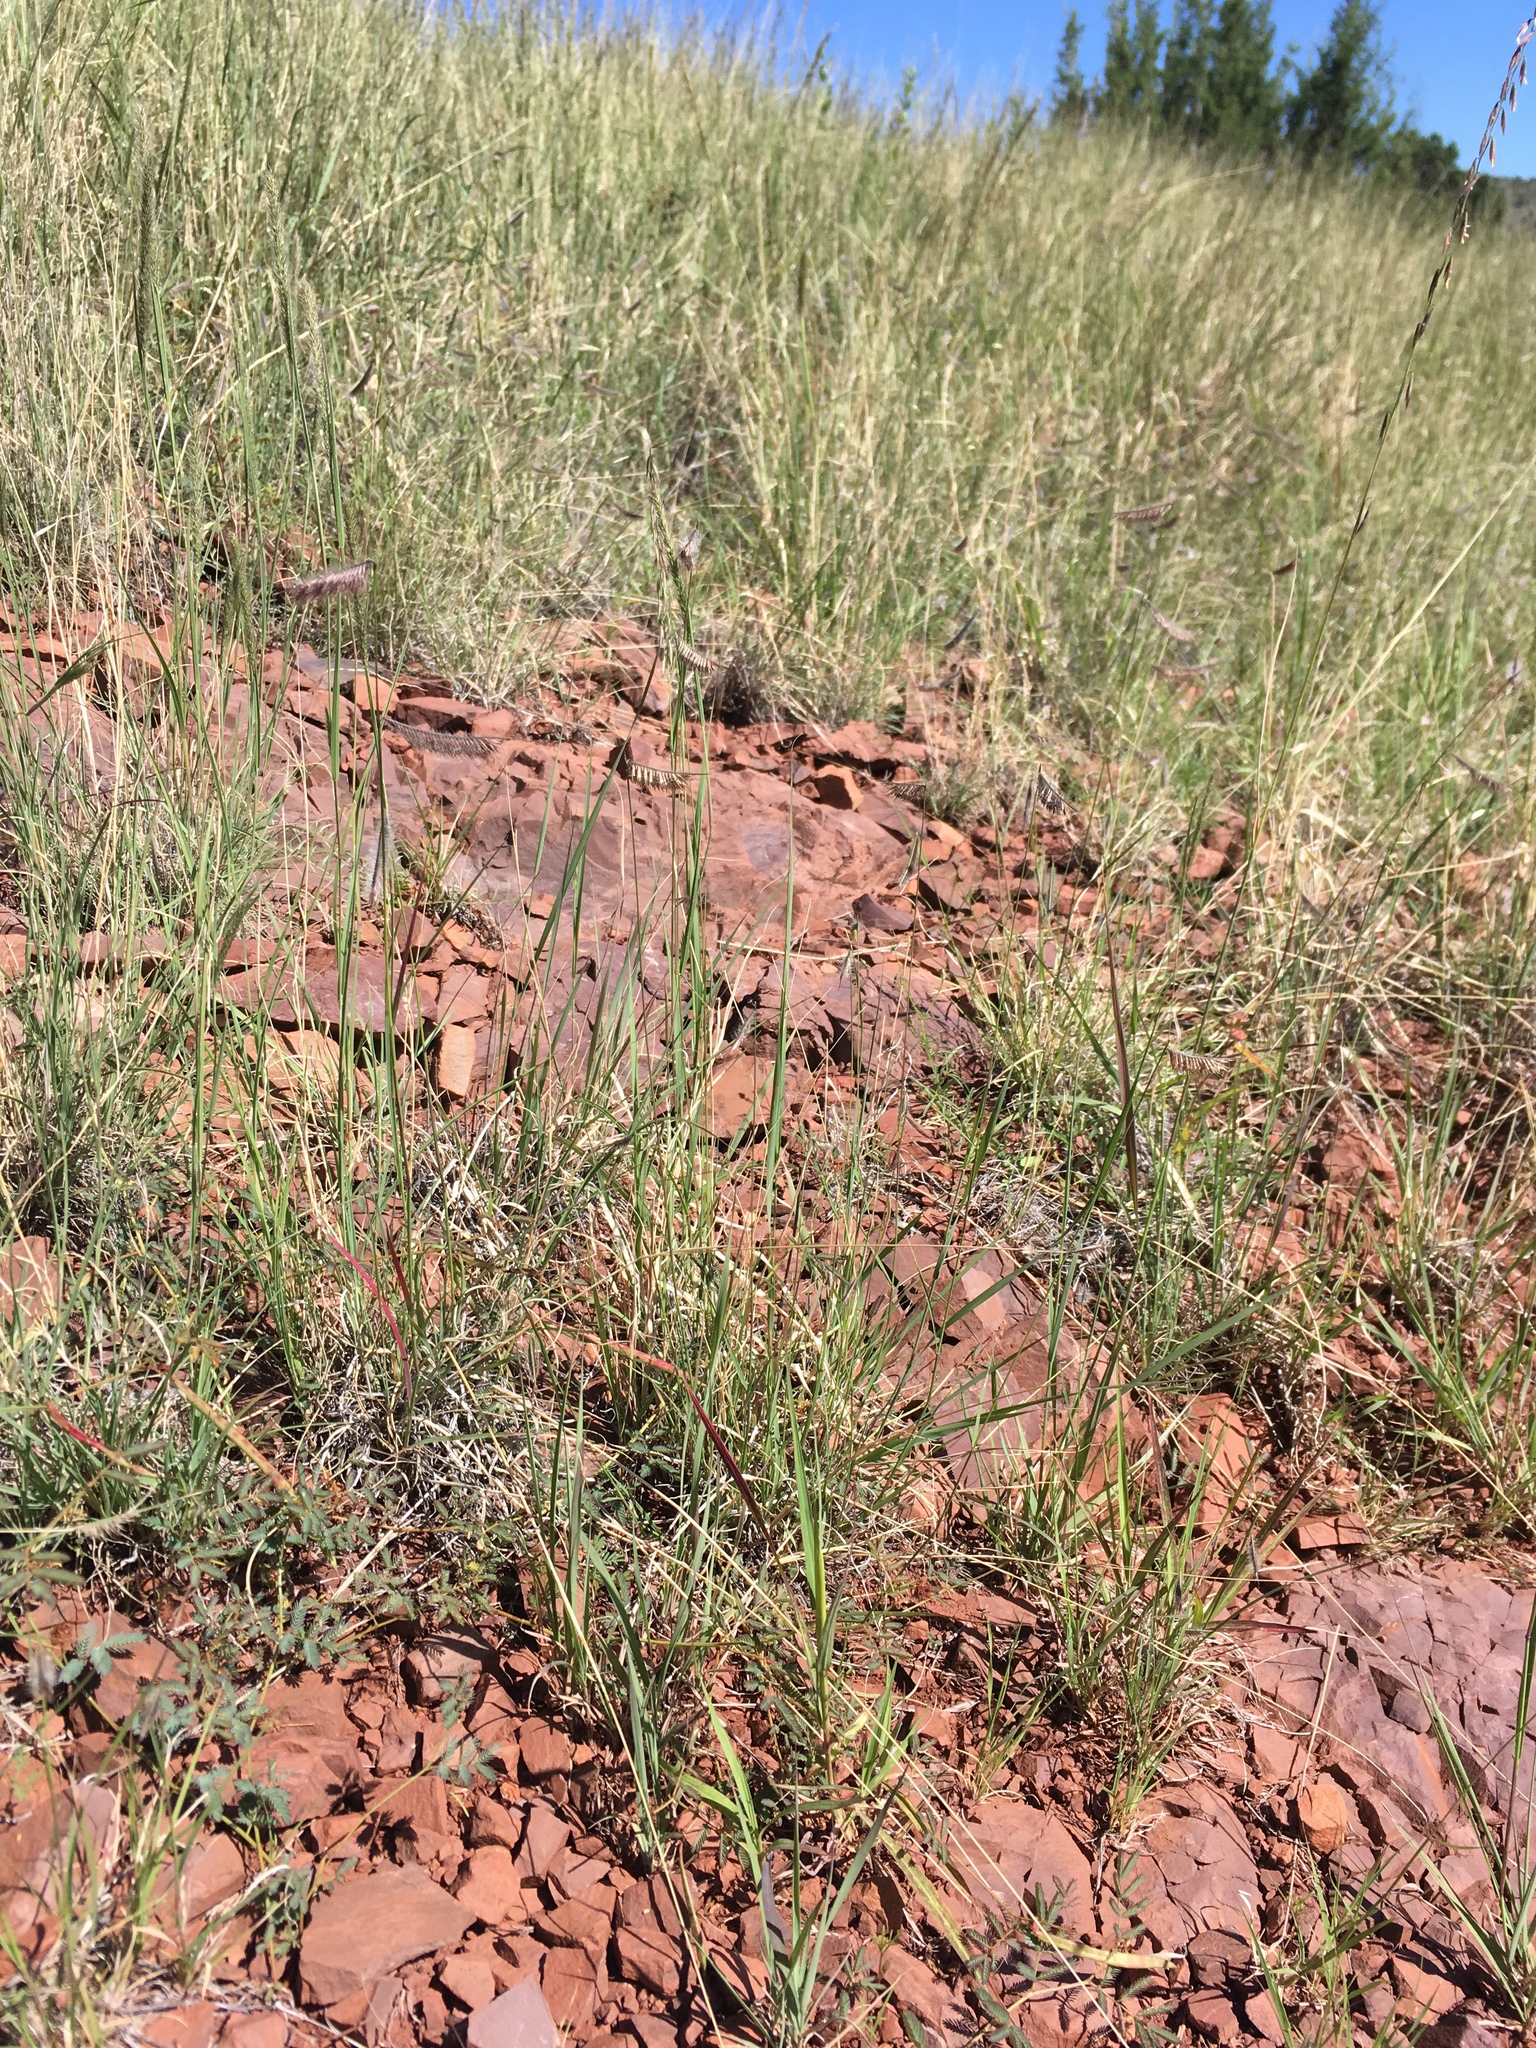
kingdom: Plantae
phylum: Tracheophyta
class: Liliopsida
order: Poales
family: Poaceae
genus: Bouteloua
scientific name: Bouteloua hirsuta
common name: Hairy grama
